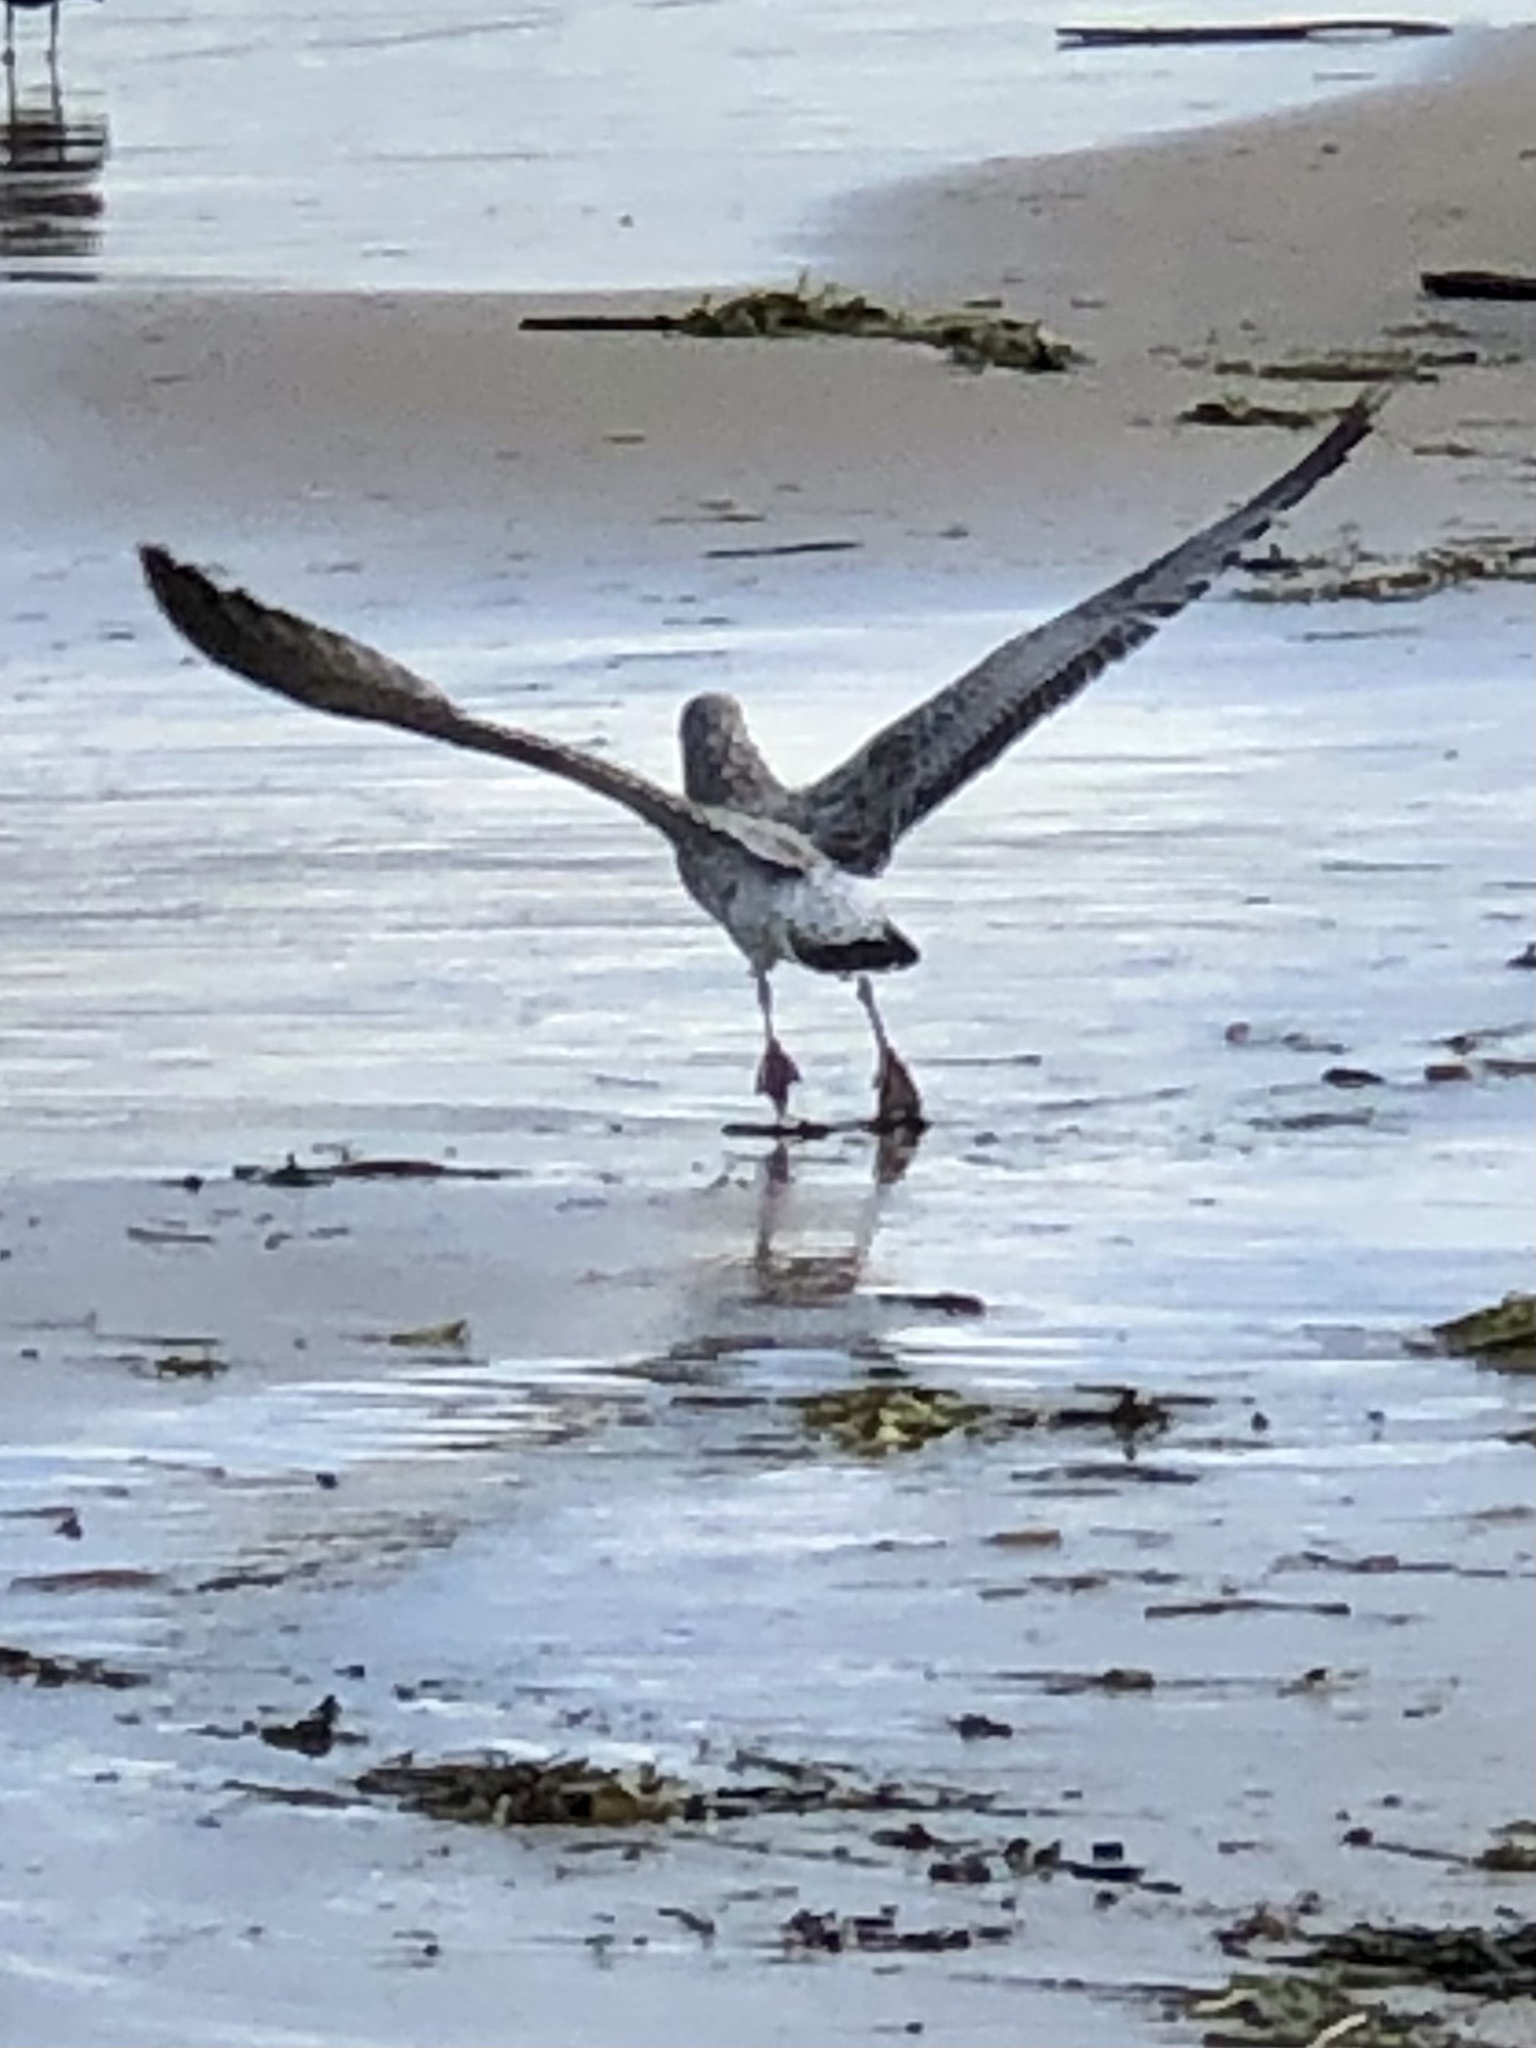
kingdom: Animalia
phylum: Chordata
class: Aves
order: Charadriiformes
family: Laridae
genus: Larus
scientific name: Larus delawarensis
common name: Ring-billed gull
